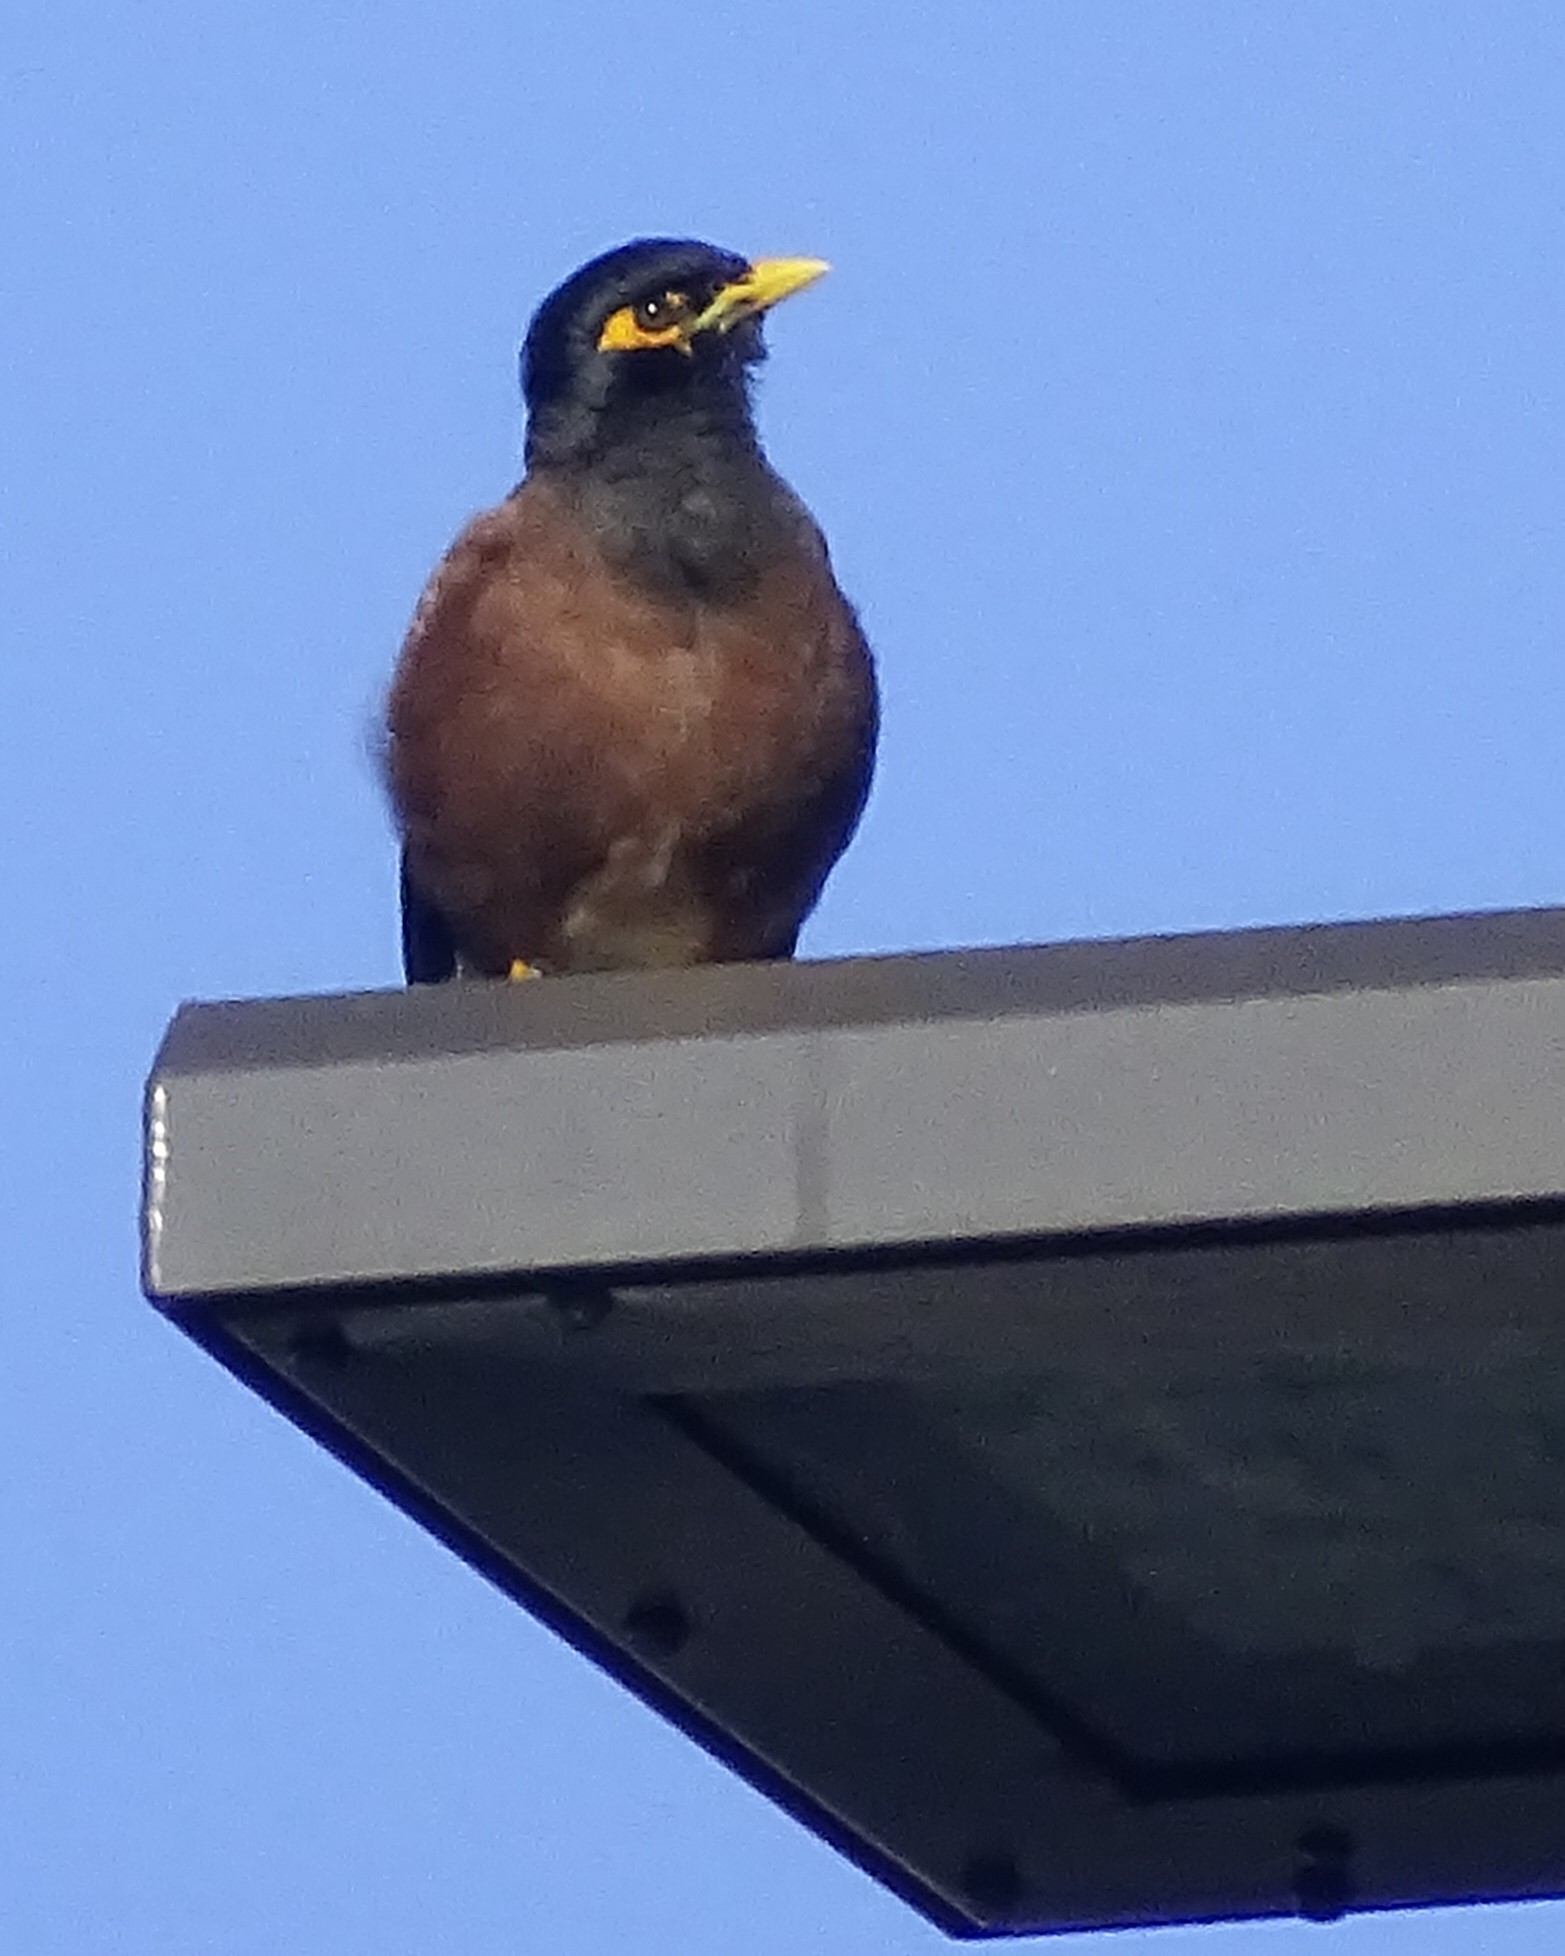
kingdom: Animalia
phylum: Chordata
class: Aves
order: Passeriformes
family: Sturnidae
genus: Acridotheres
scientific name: Acridotheres tristis
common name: Common myna
